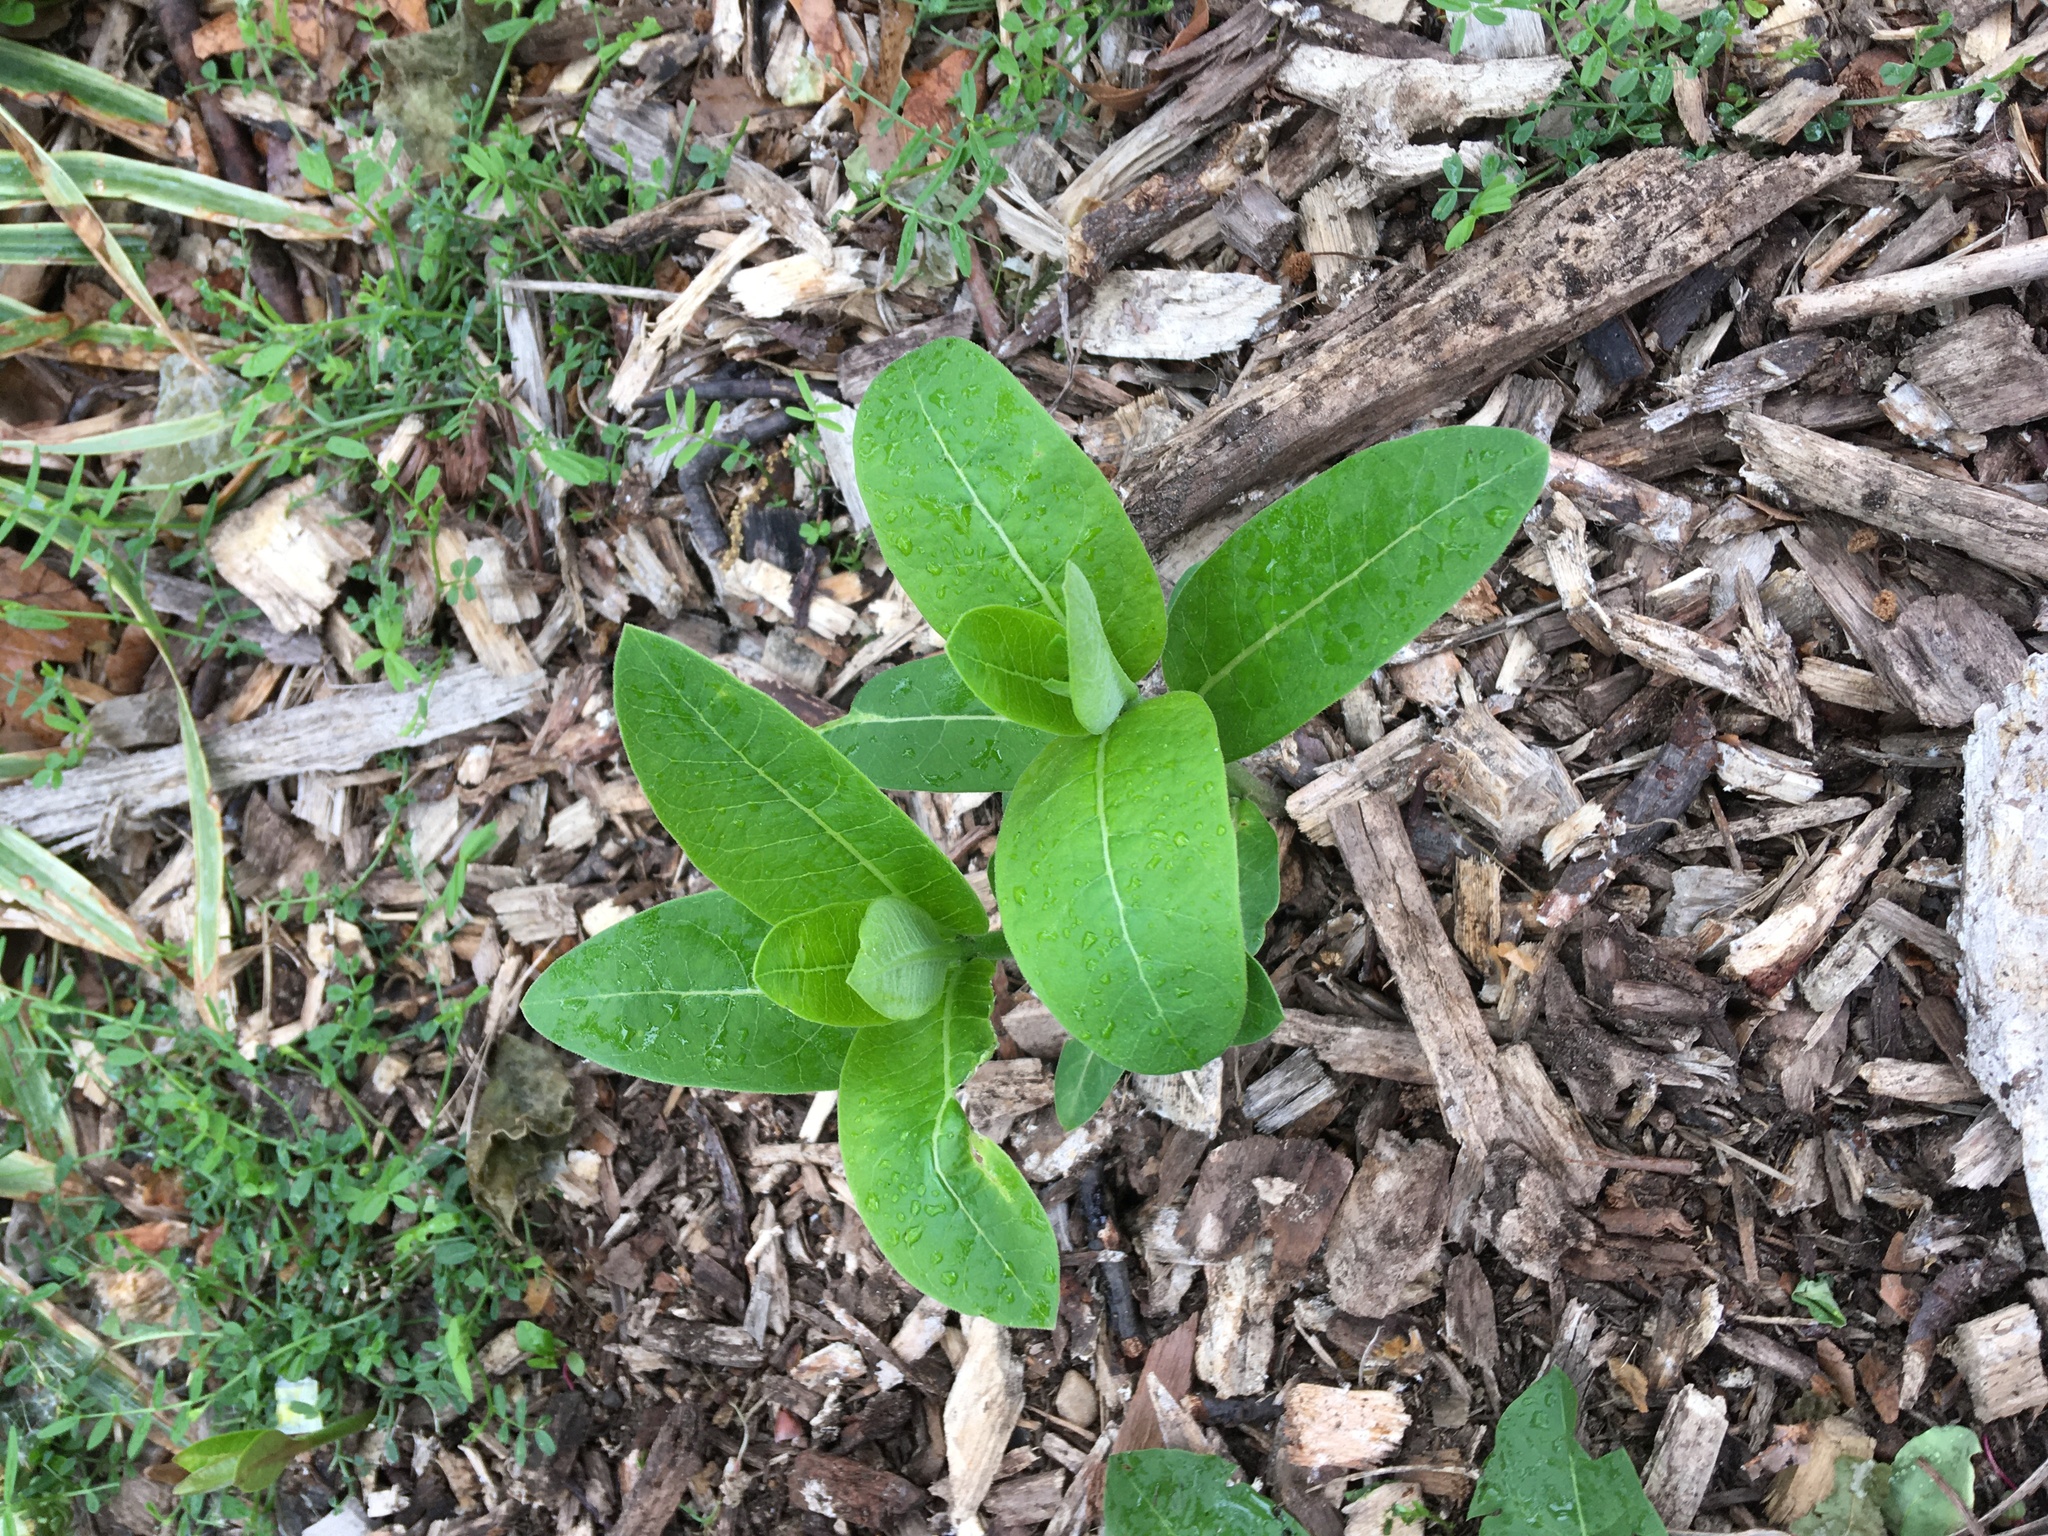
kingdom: Plantae
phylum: Tracheophyta
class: Magnoliopsida
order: Gentianales
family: Apocynaceae
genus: Asclepias
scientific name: Asclepias syriaca
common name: Common milkweed
